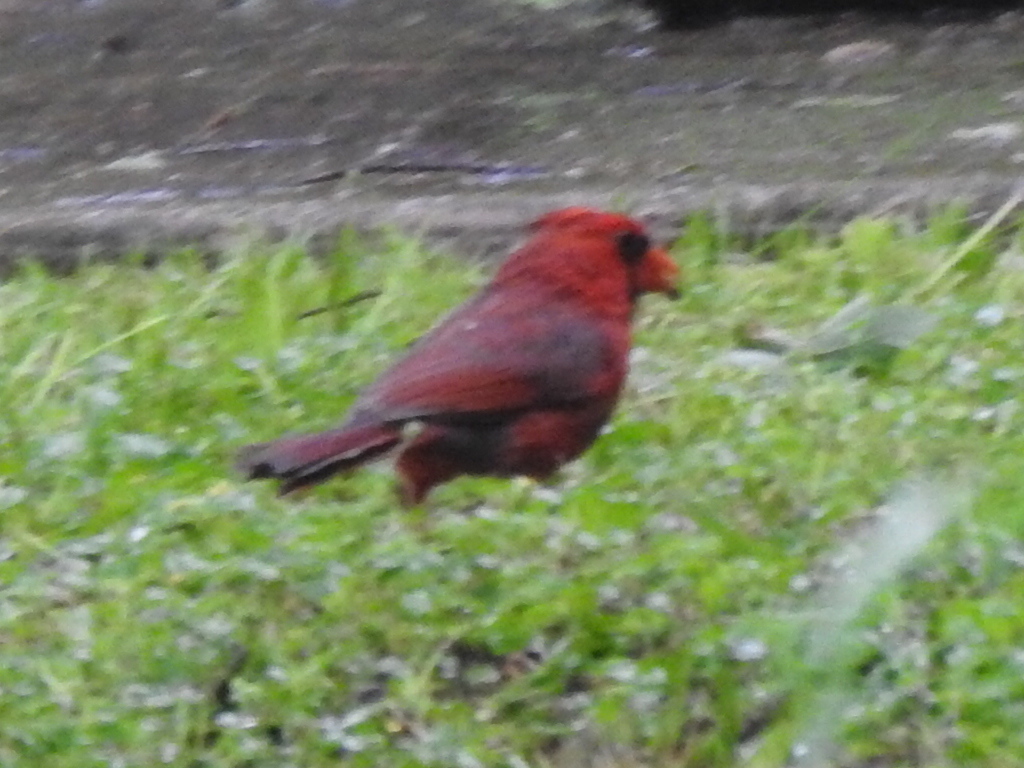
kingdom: Animalia
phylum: Chordata
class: Aves
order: Passeriformes
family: Cardinalidae
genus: Cardinalis
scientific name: Cardinalis cardinalis
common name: Northern cardinal
